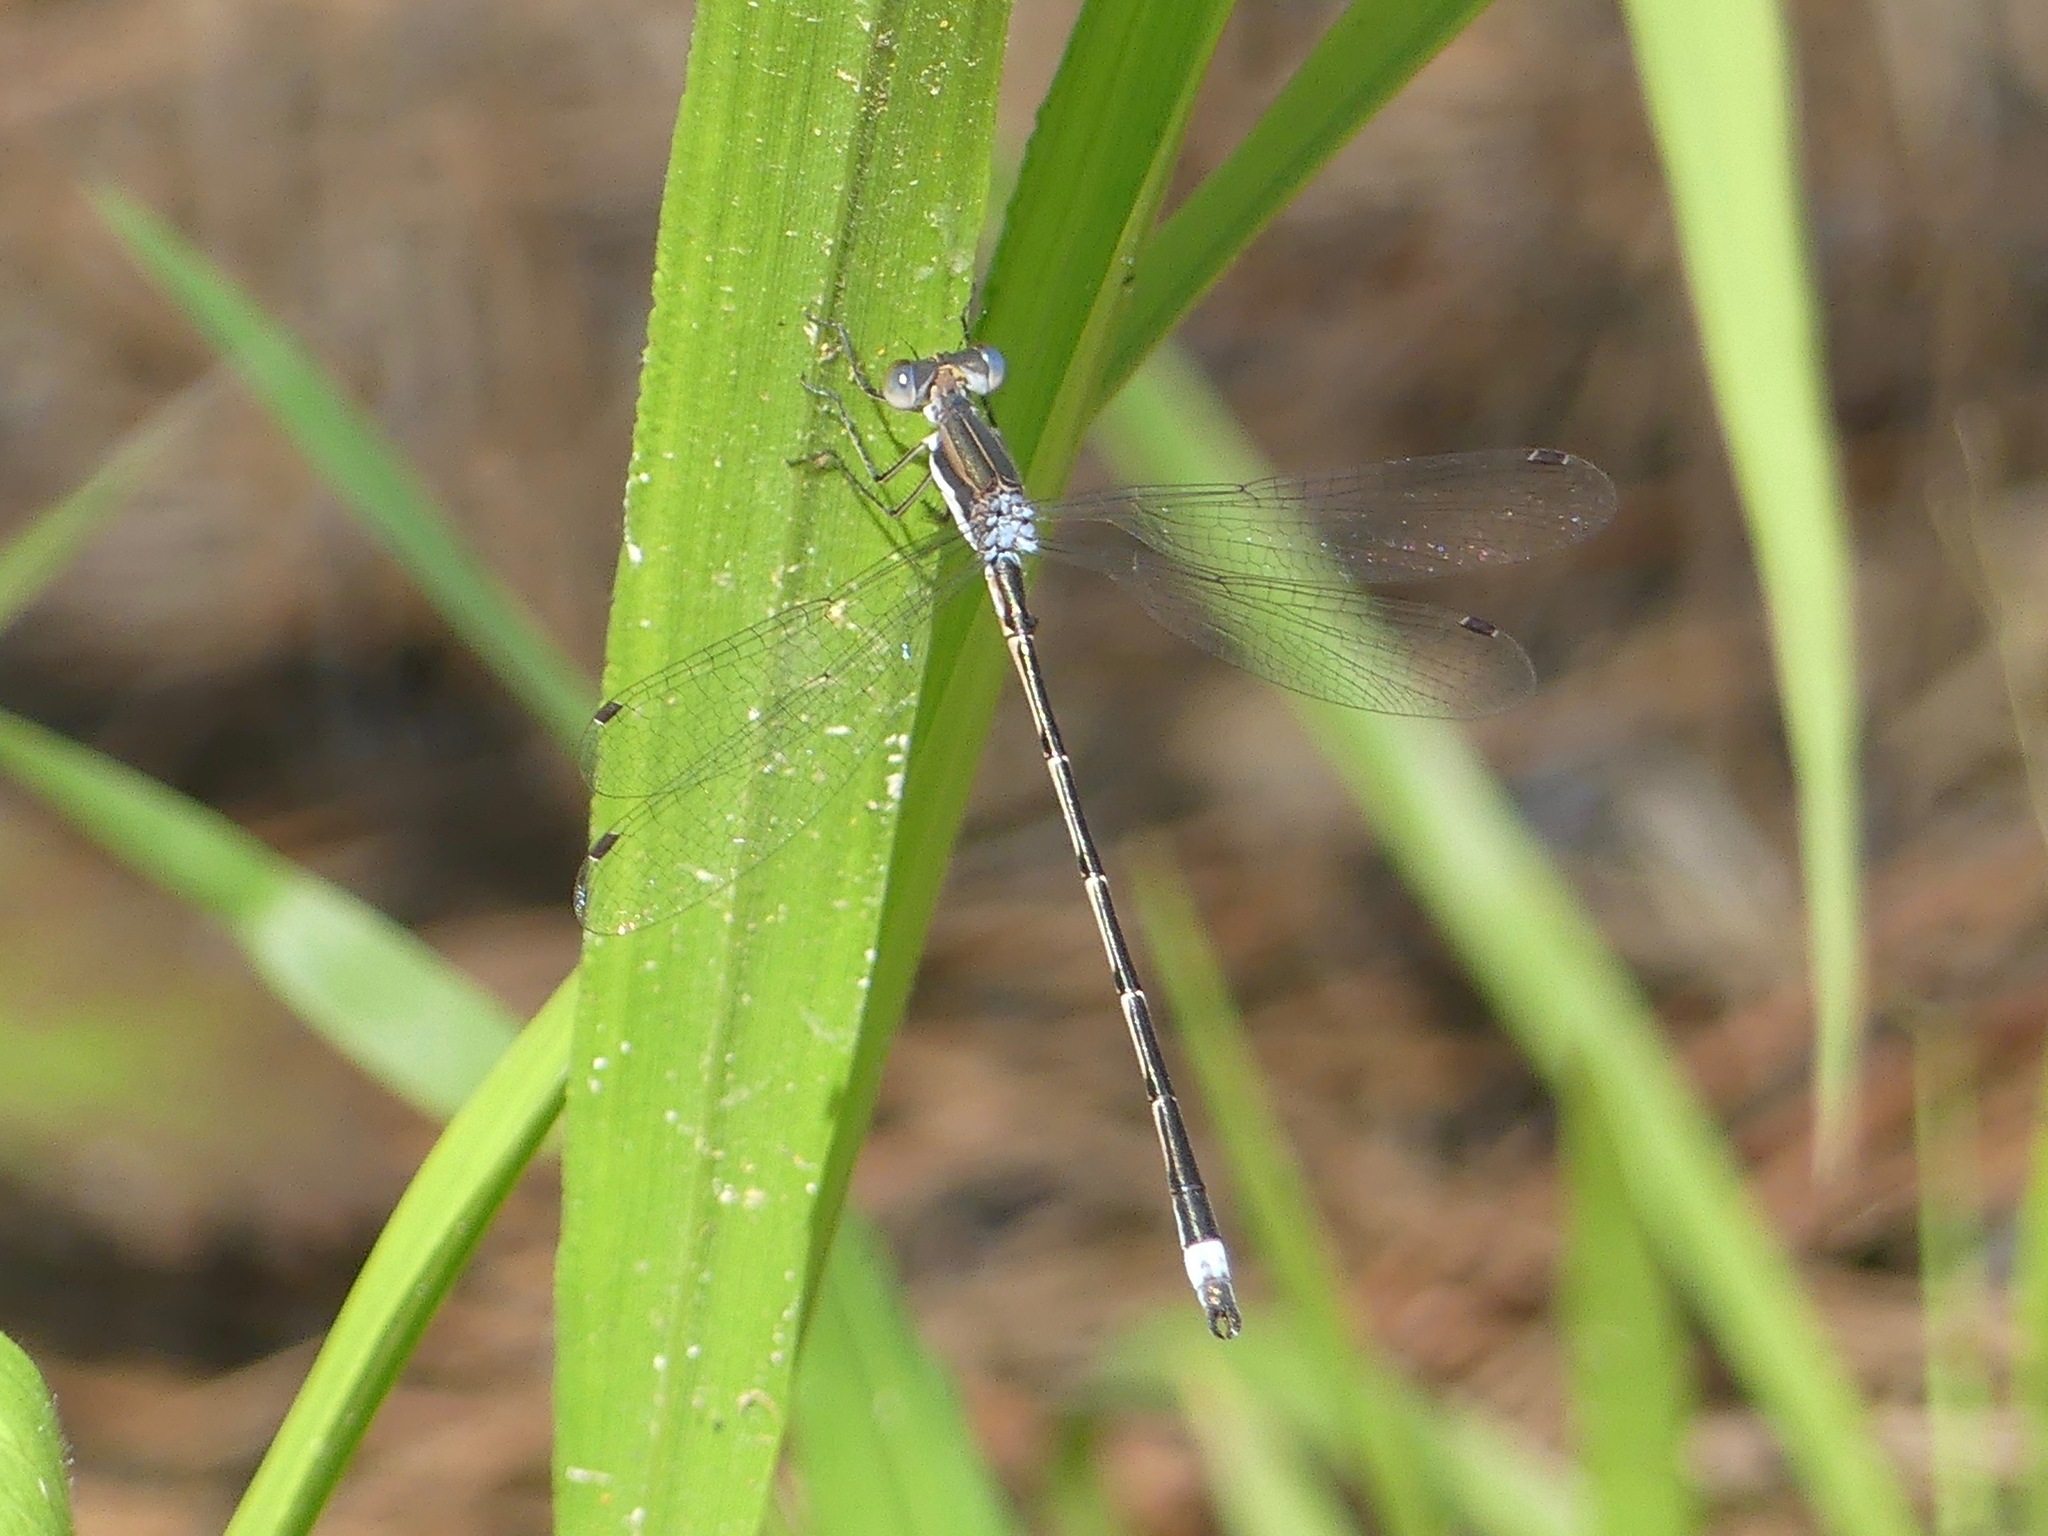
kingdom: Animalia
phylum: Arthropoda
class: Insecta
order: Odonata
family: Lestidae
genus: Lestes
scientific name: Lestes australis
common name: Southern spreadwing
